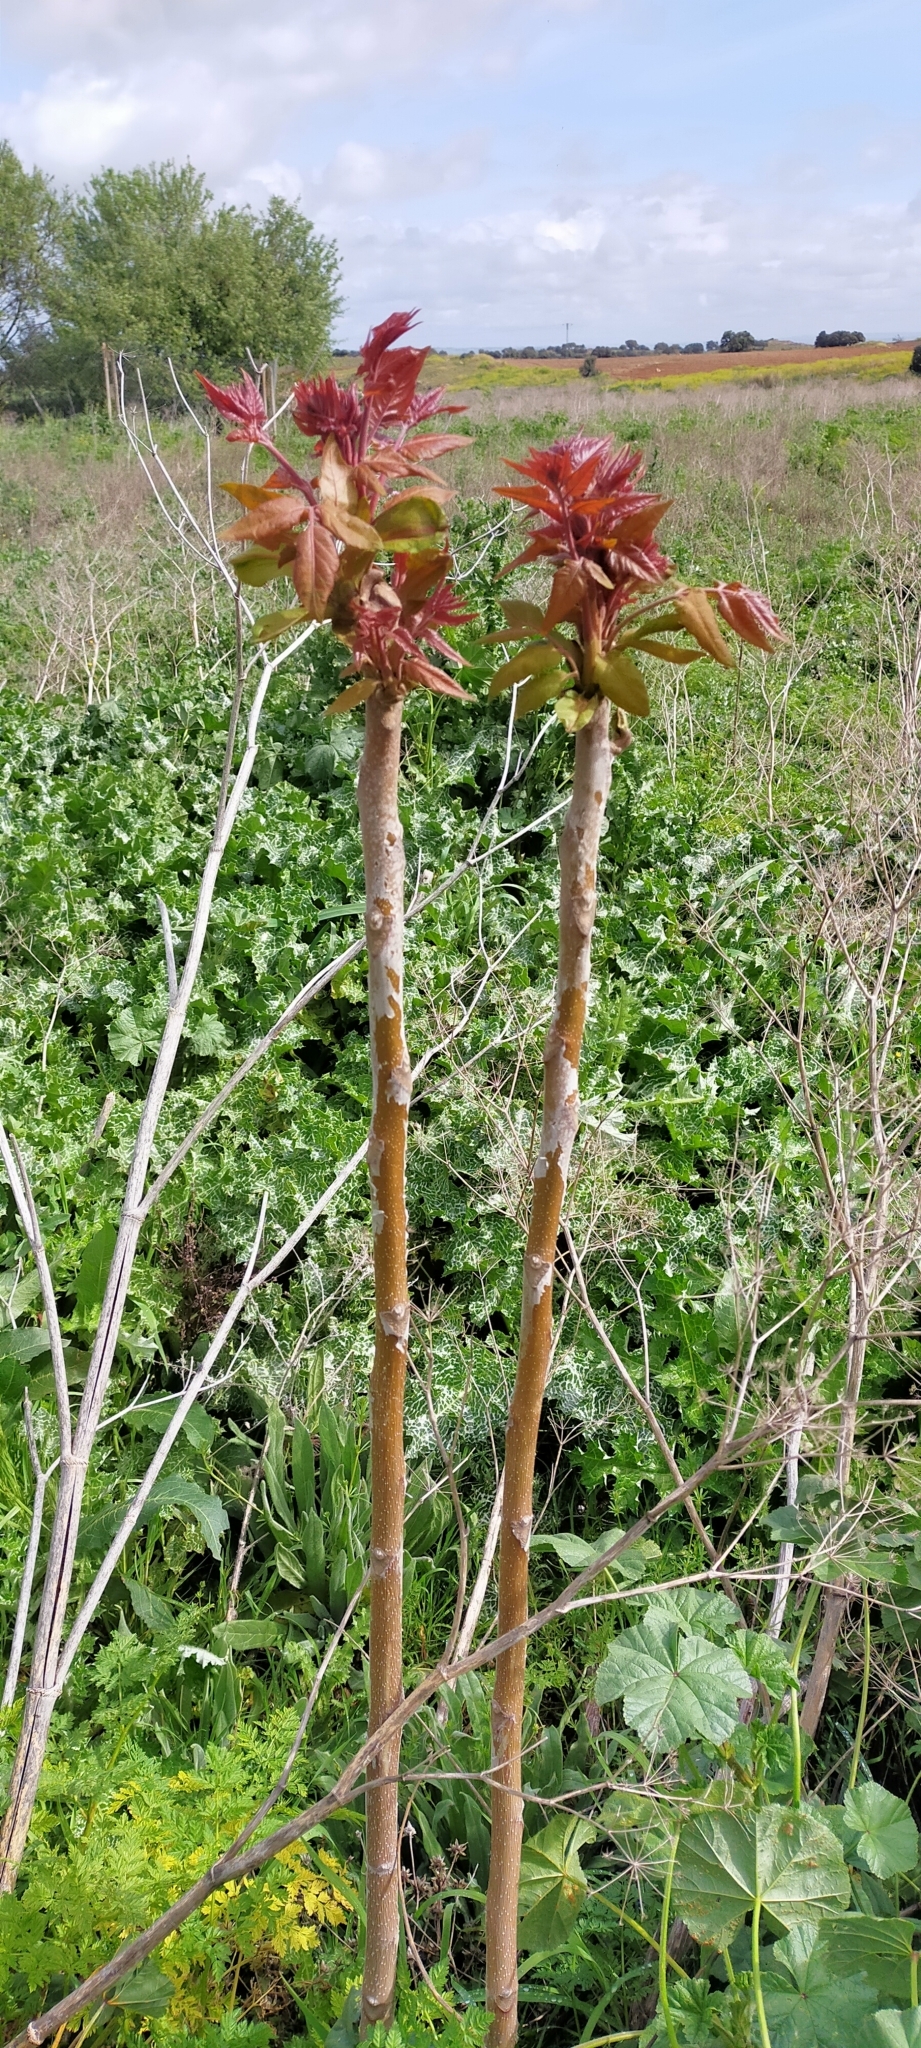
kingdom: Plantae
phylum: Tracheophyta
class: Magnoliopsida
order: Sapindales
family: Simaroubaceae
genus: Ailanthus
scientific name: Ailanthus altissima
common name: Tree-of-heaven
